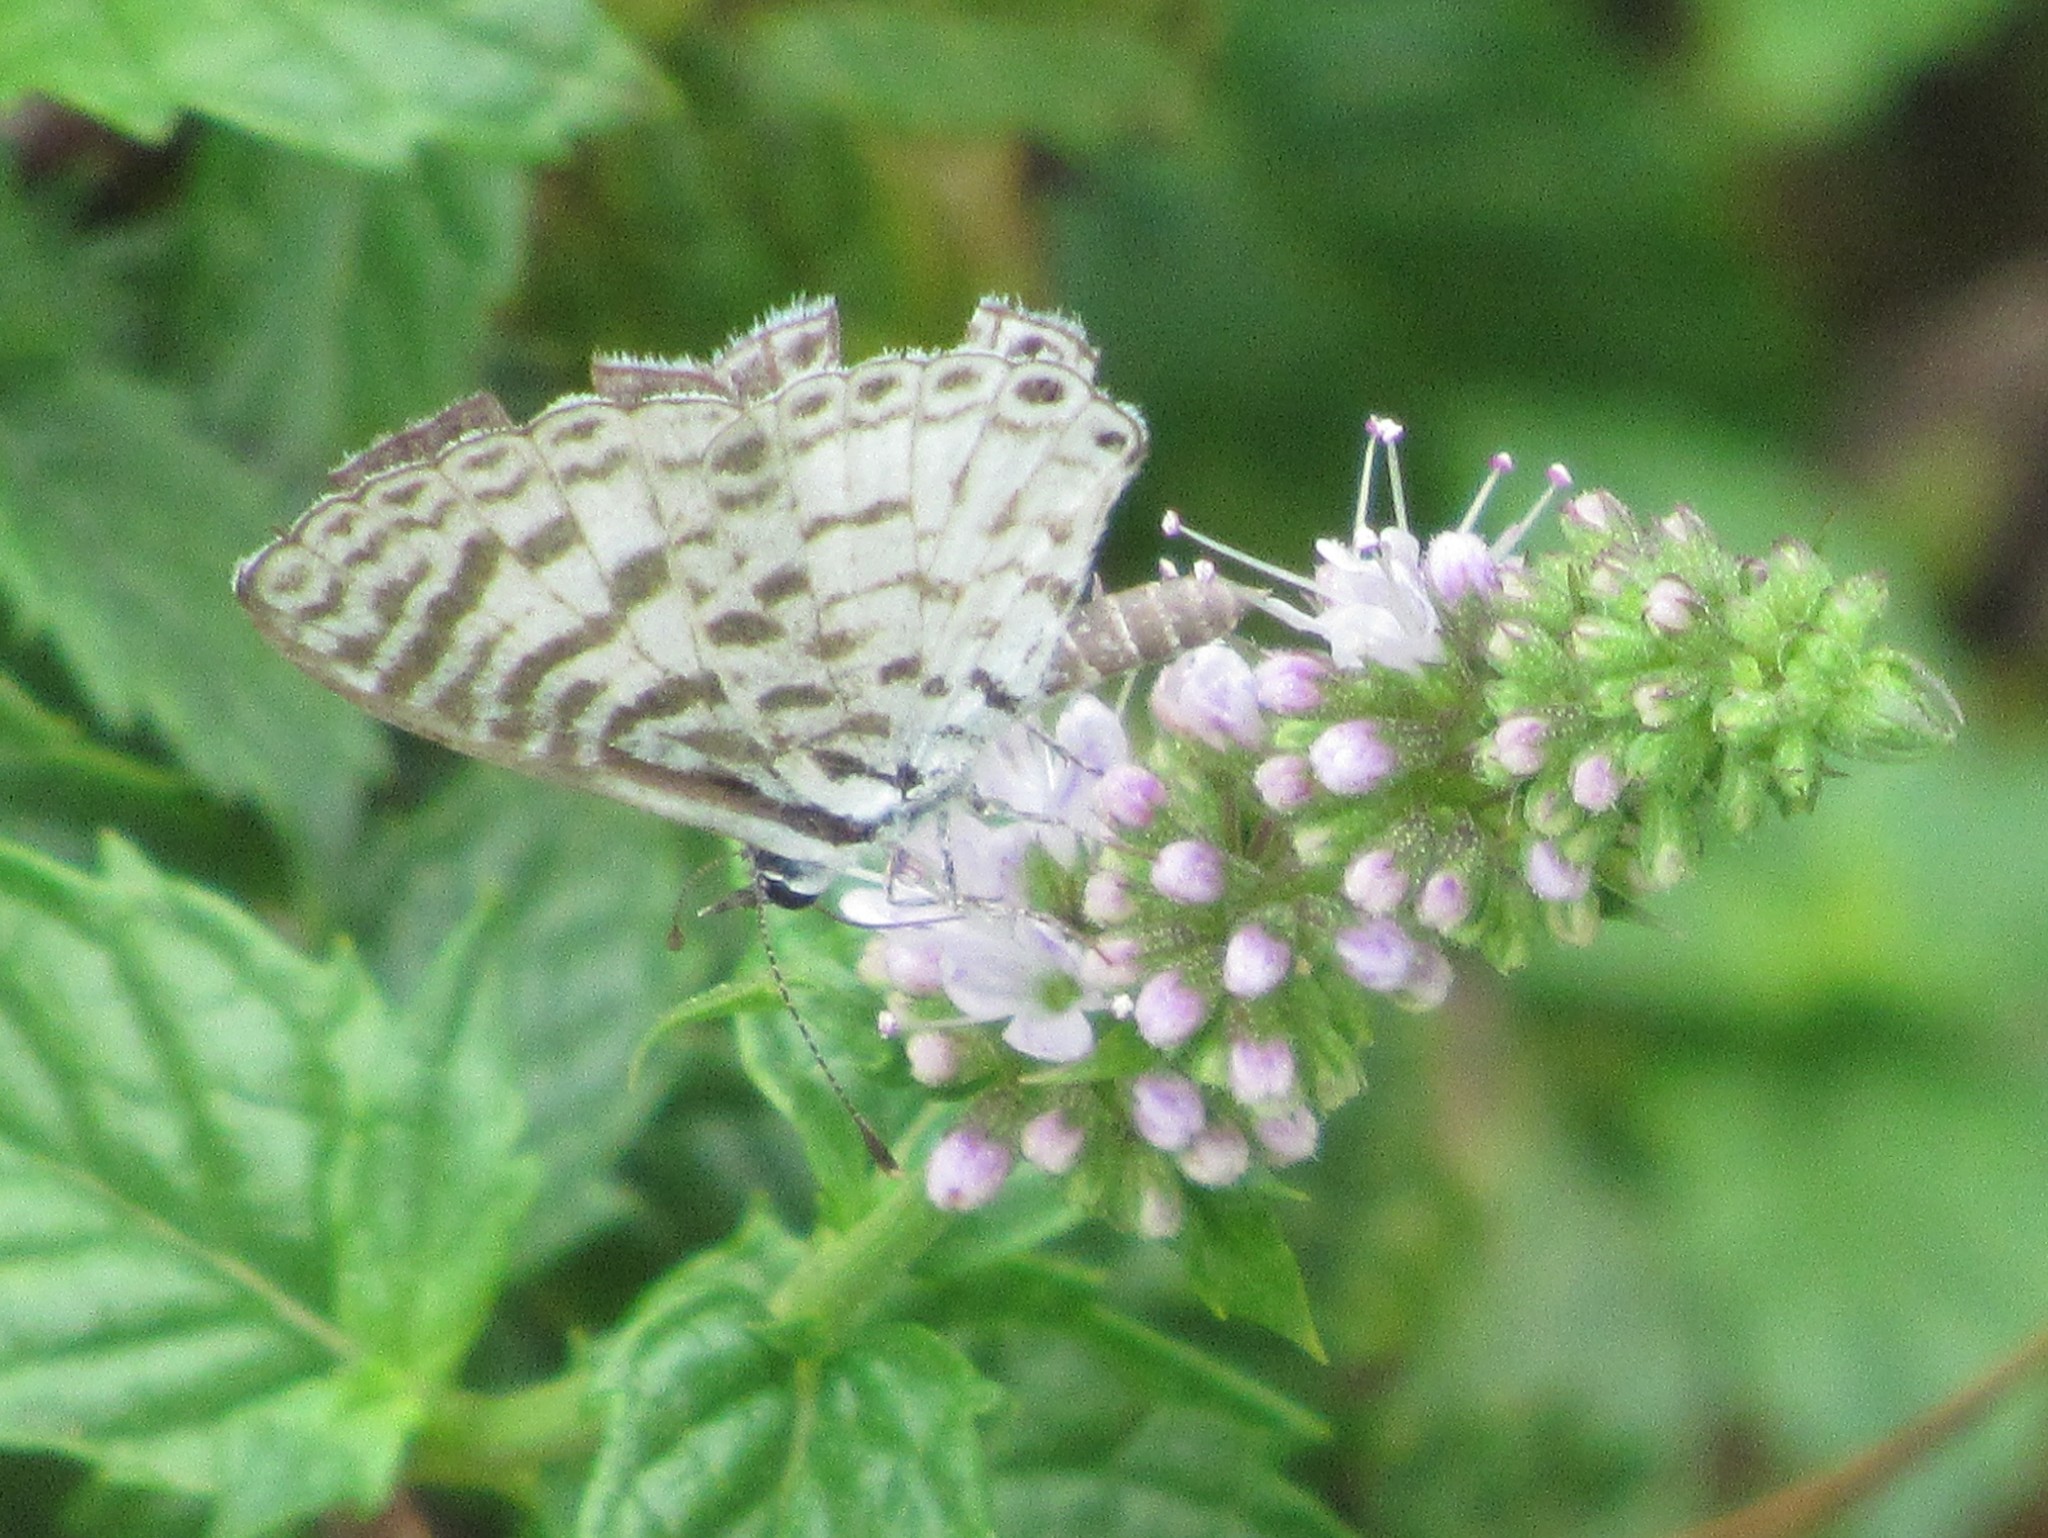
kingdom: Animalia
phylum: Arthropoda
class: Insecta
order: Lepidoptera
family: Lycaenidae
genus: Leptotes
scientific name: Leptotes cassius
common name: Cassius blue
